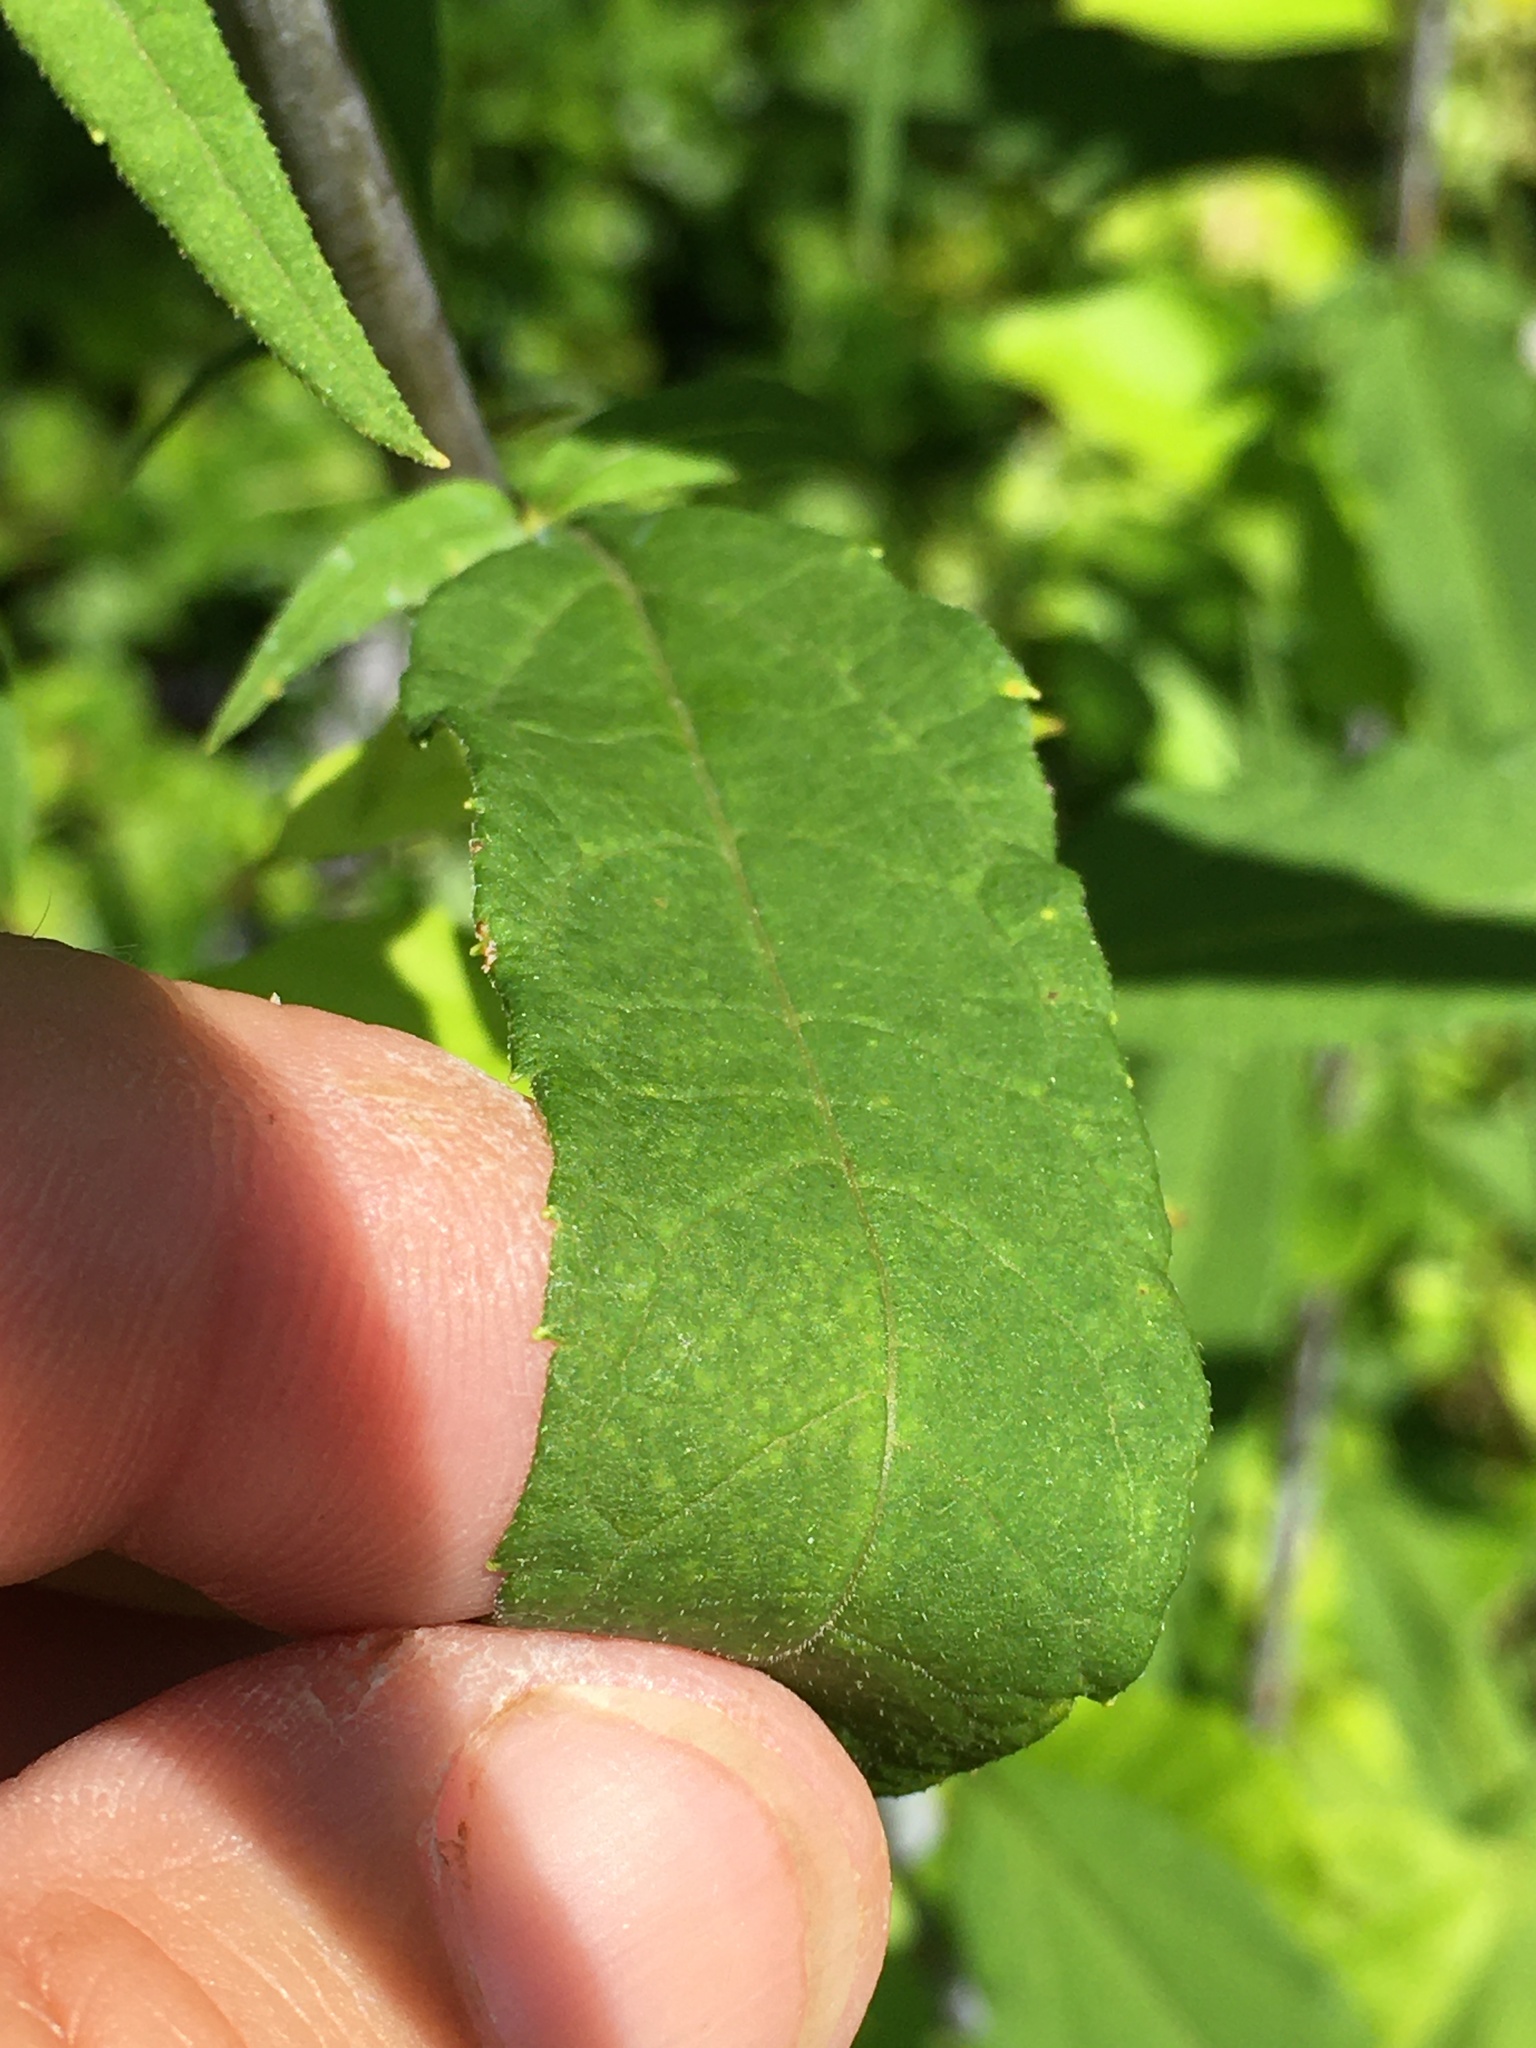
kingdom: Plantae
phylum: Tracheophyta
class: Magnoliopsida
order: Asterales
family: Asteraceae
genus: Helianthus
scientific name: Helianthus microcephalus
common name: Woodland sunflower
